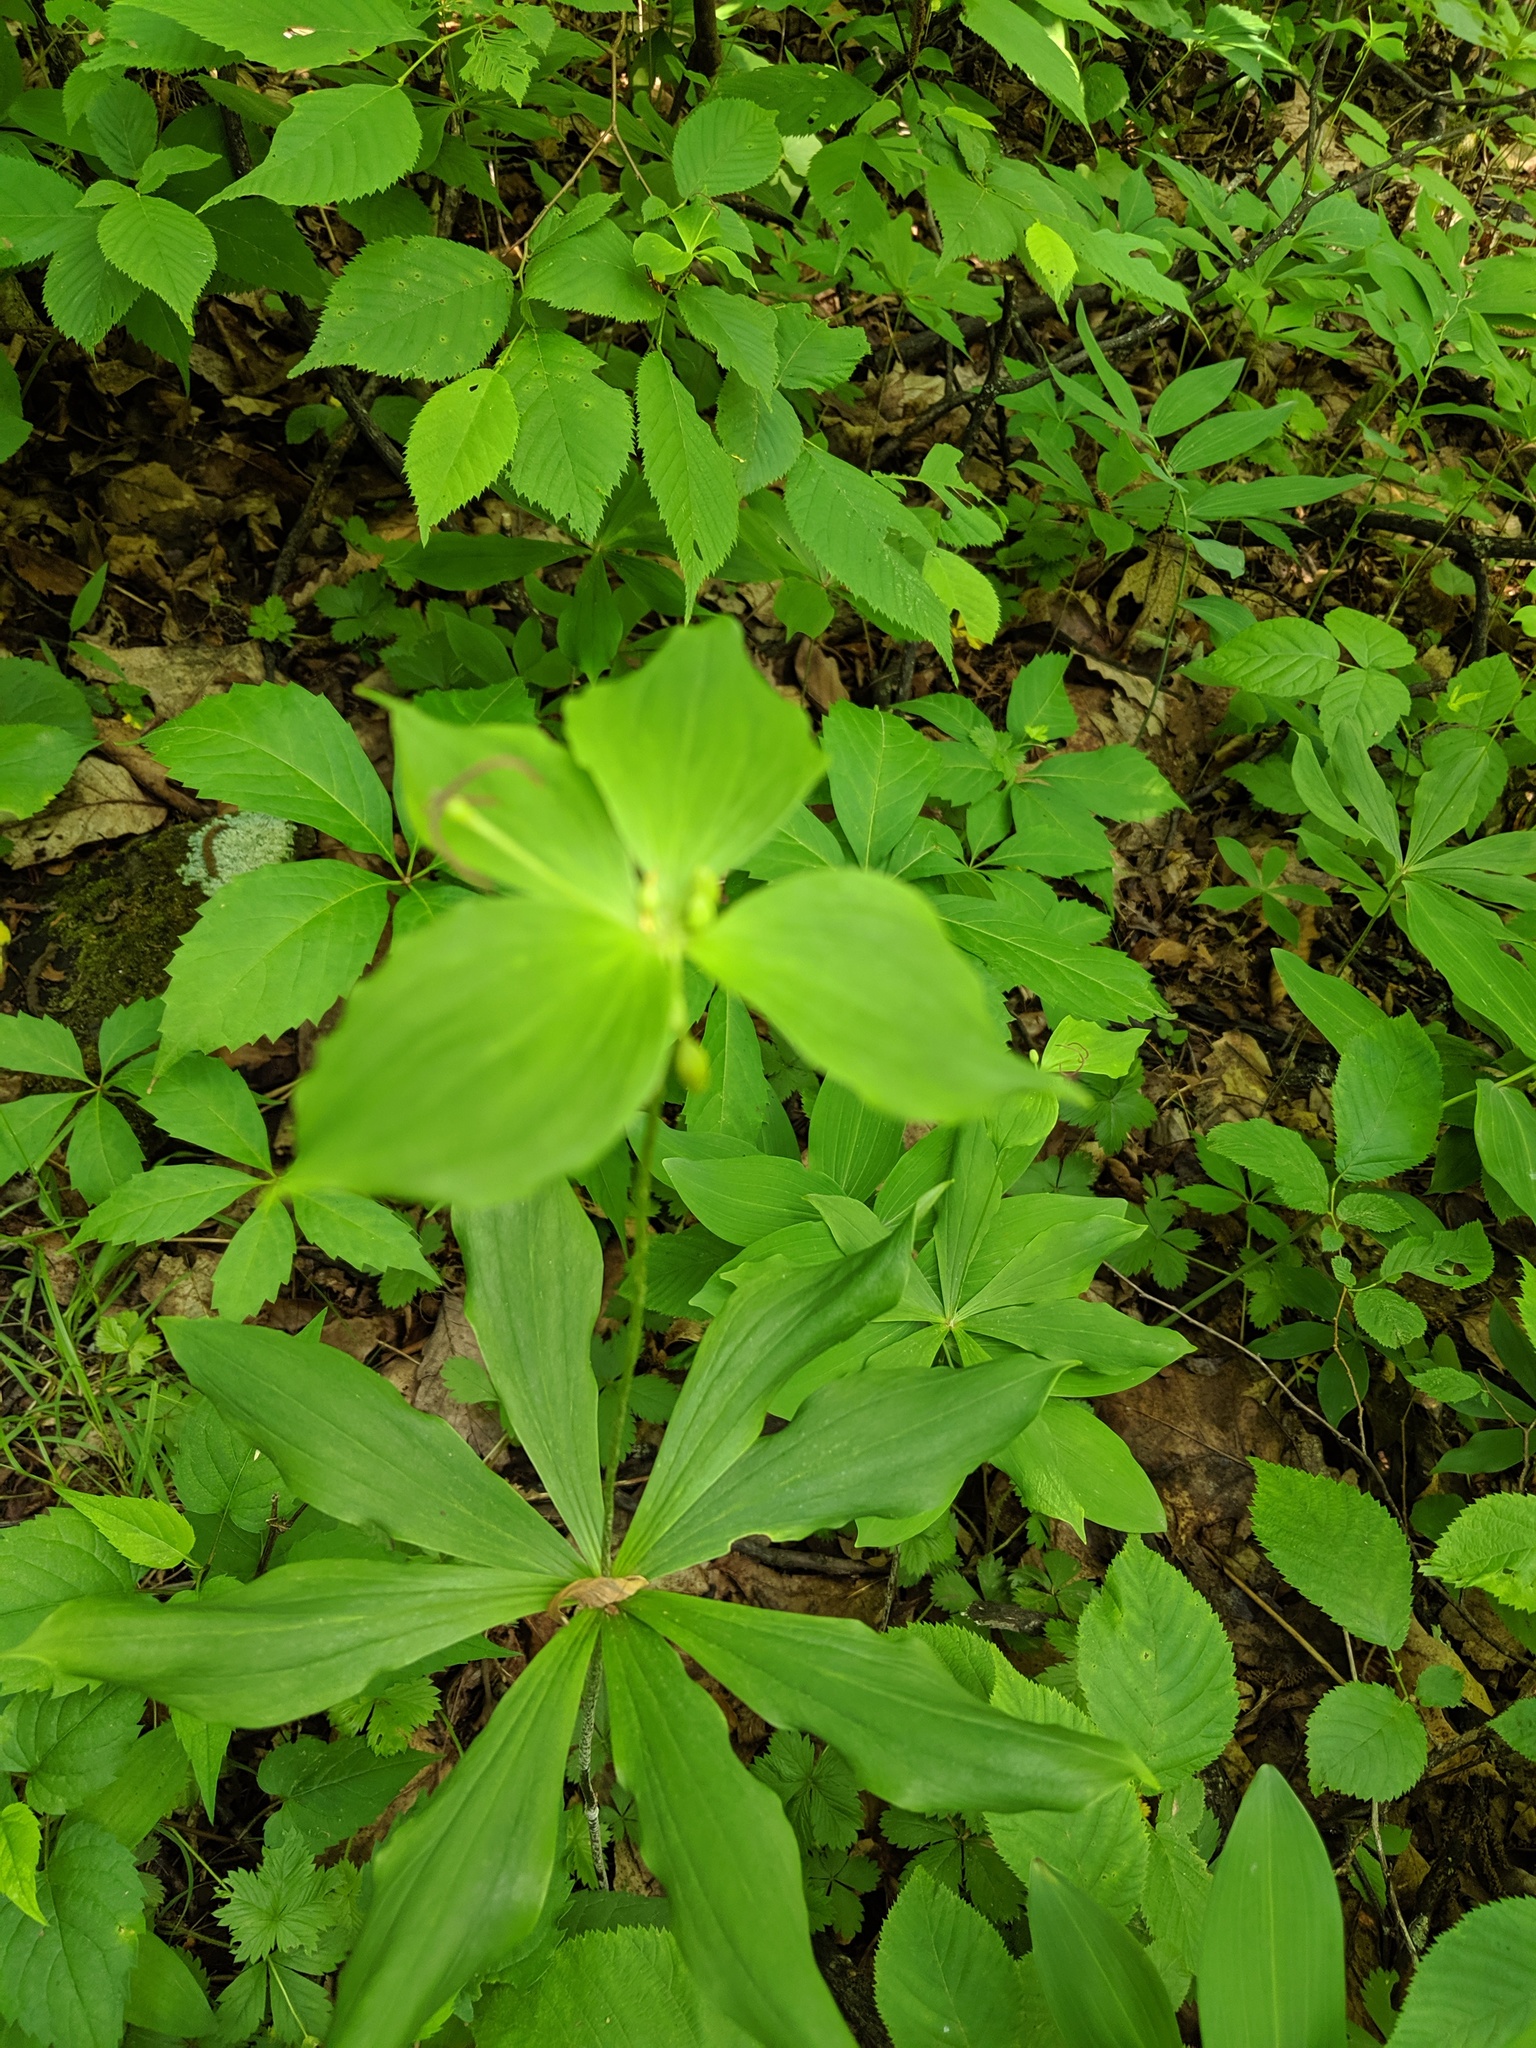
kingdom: Plantae
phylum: Tracheophyta
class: Liliopsida
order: Liliales
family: Liliaceae
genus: Medeola
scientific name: Medeola virginiana
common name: Indian cucumber-root
